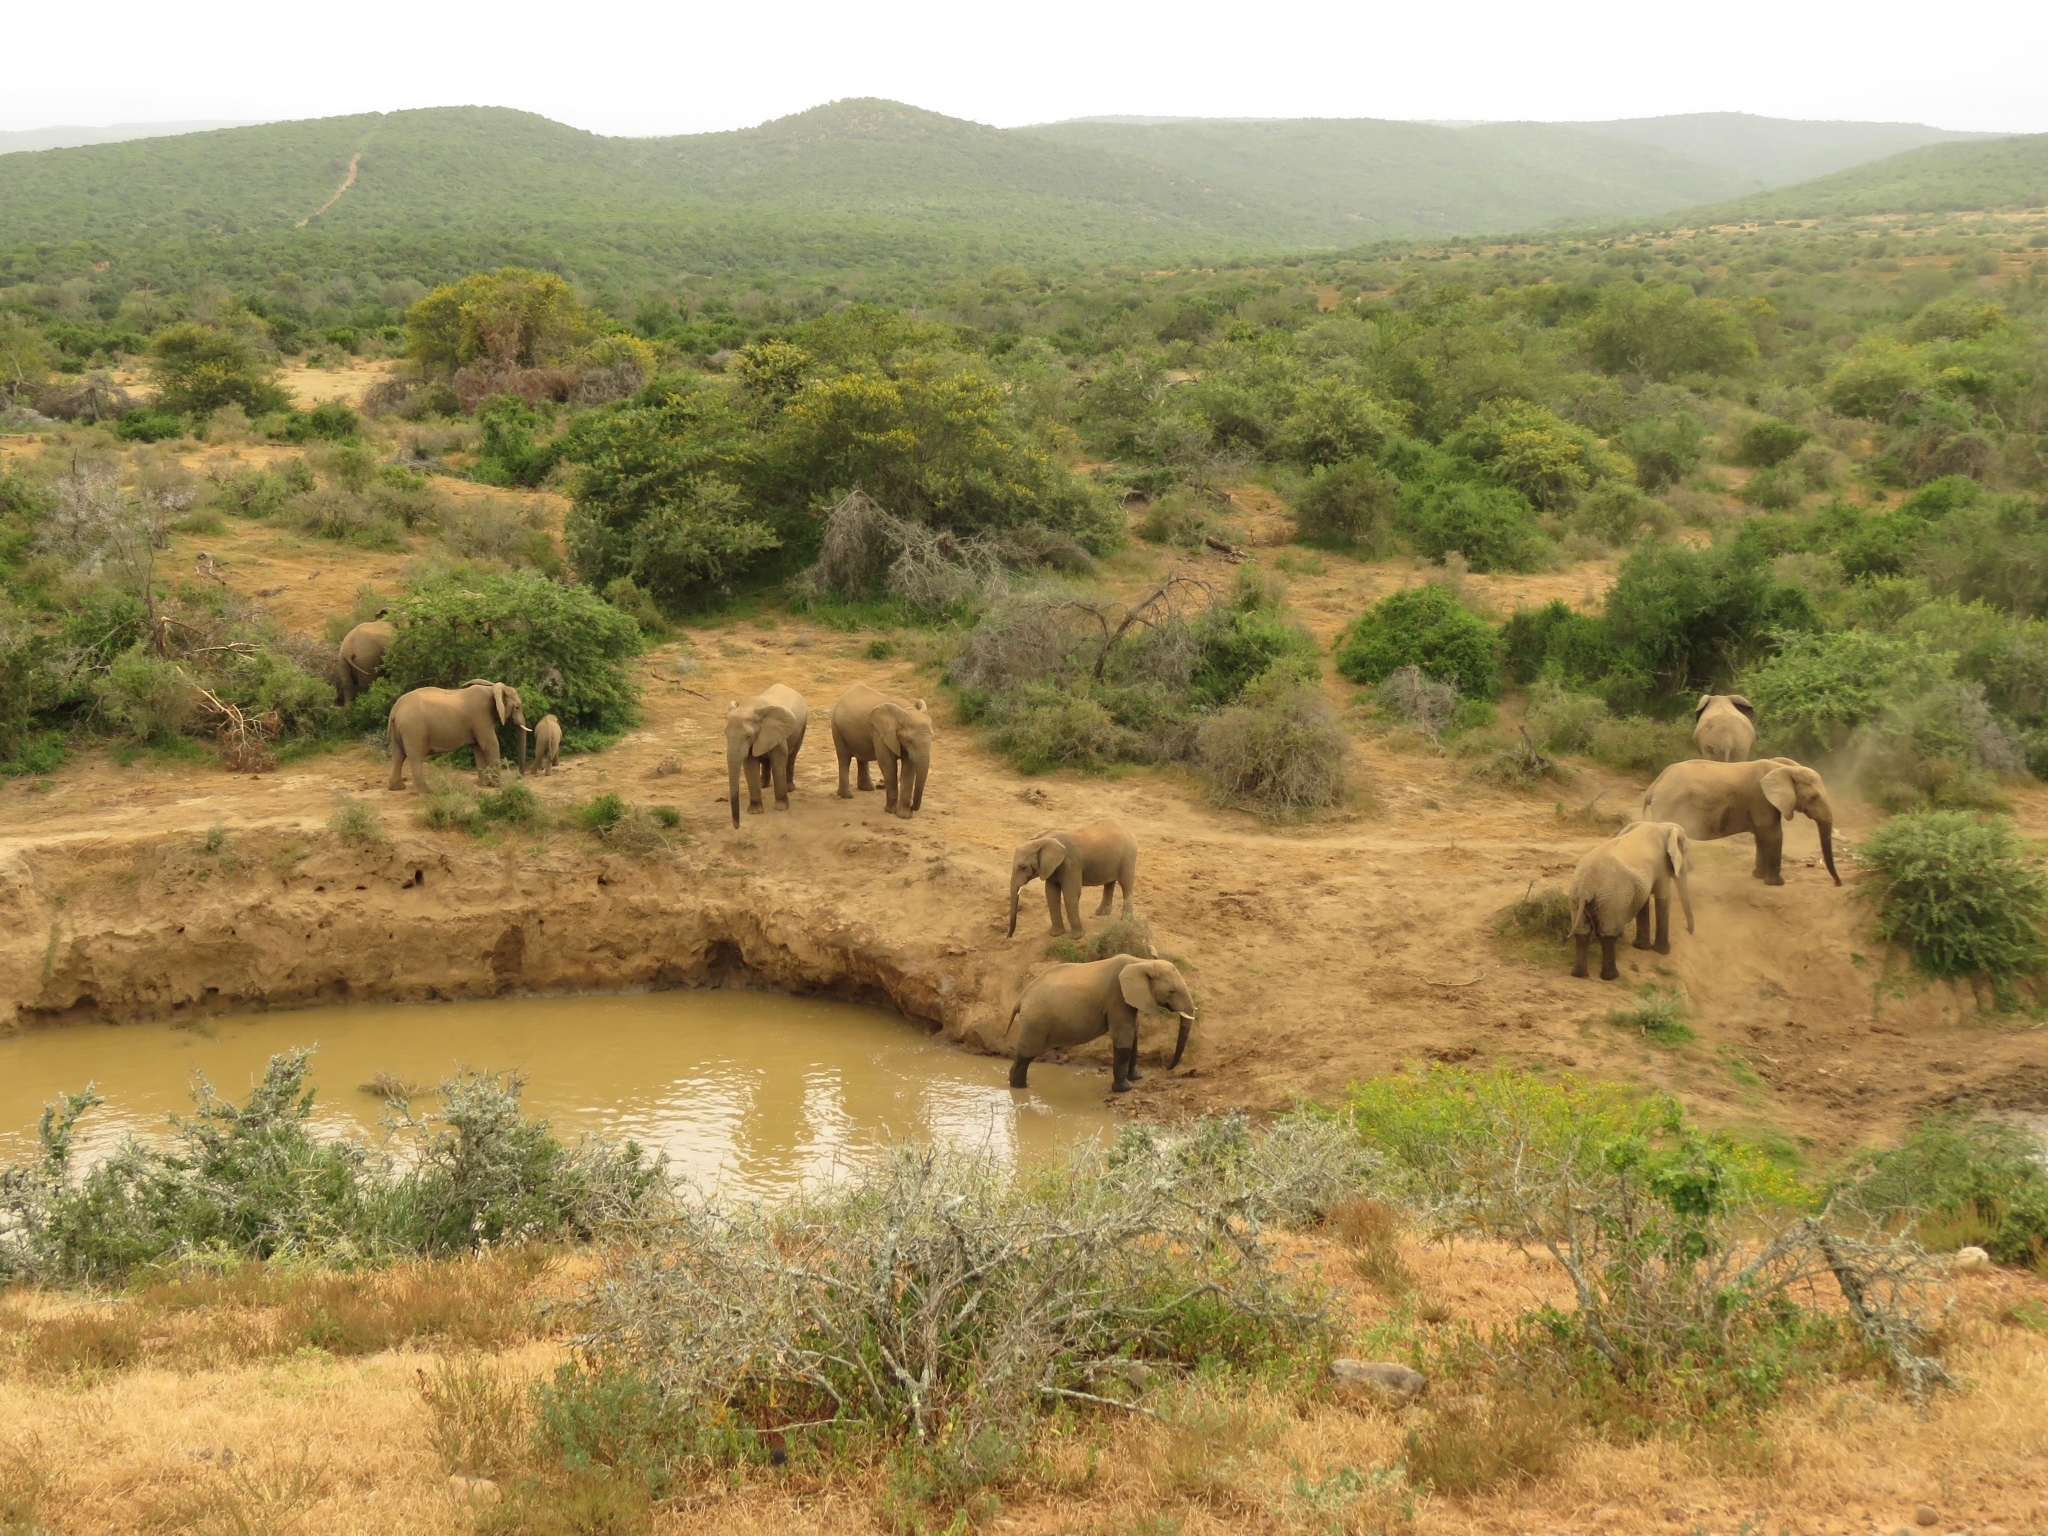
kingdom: Animalia
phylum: Chordata
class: Mammalia
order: Proboscidea
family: Elephantidae
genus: Loxodonta
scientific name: Loxodonta africana
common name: African elephant
